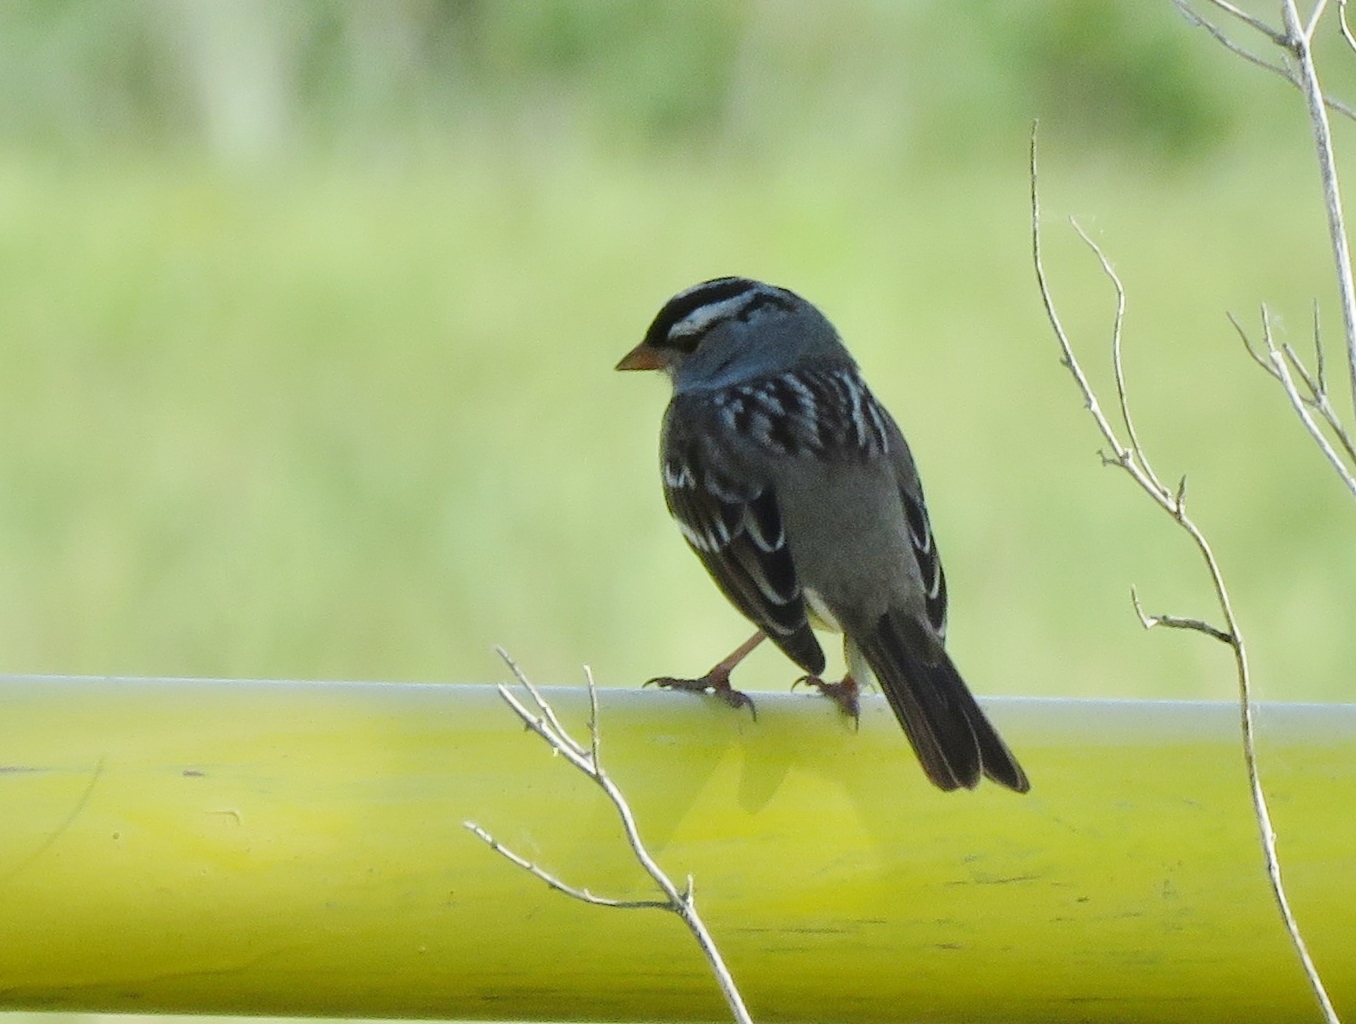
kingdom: Animalia
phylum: Chordata
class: Aves
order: Passeriformes
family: Passerellidae
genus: Zonotrichia
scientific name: Zonotrichia leucophrys
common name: White-crowned sparrow
